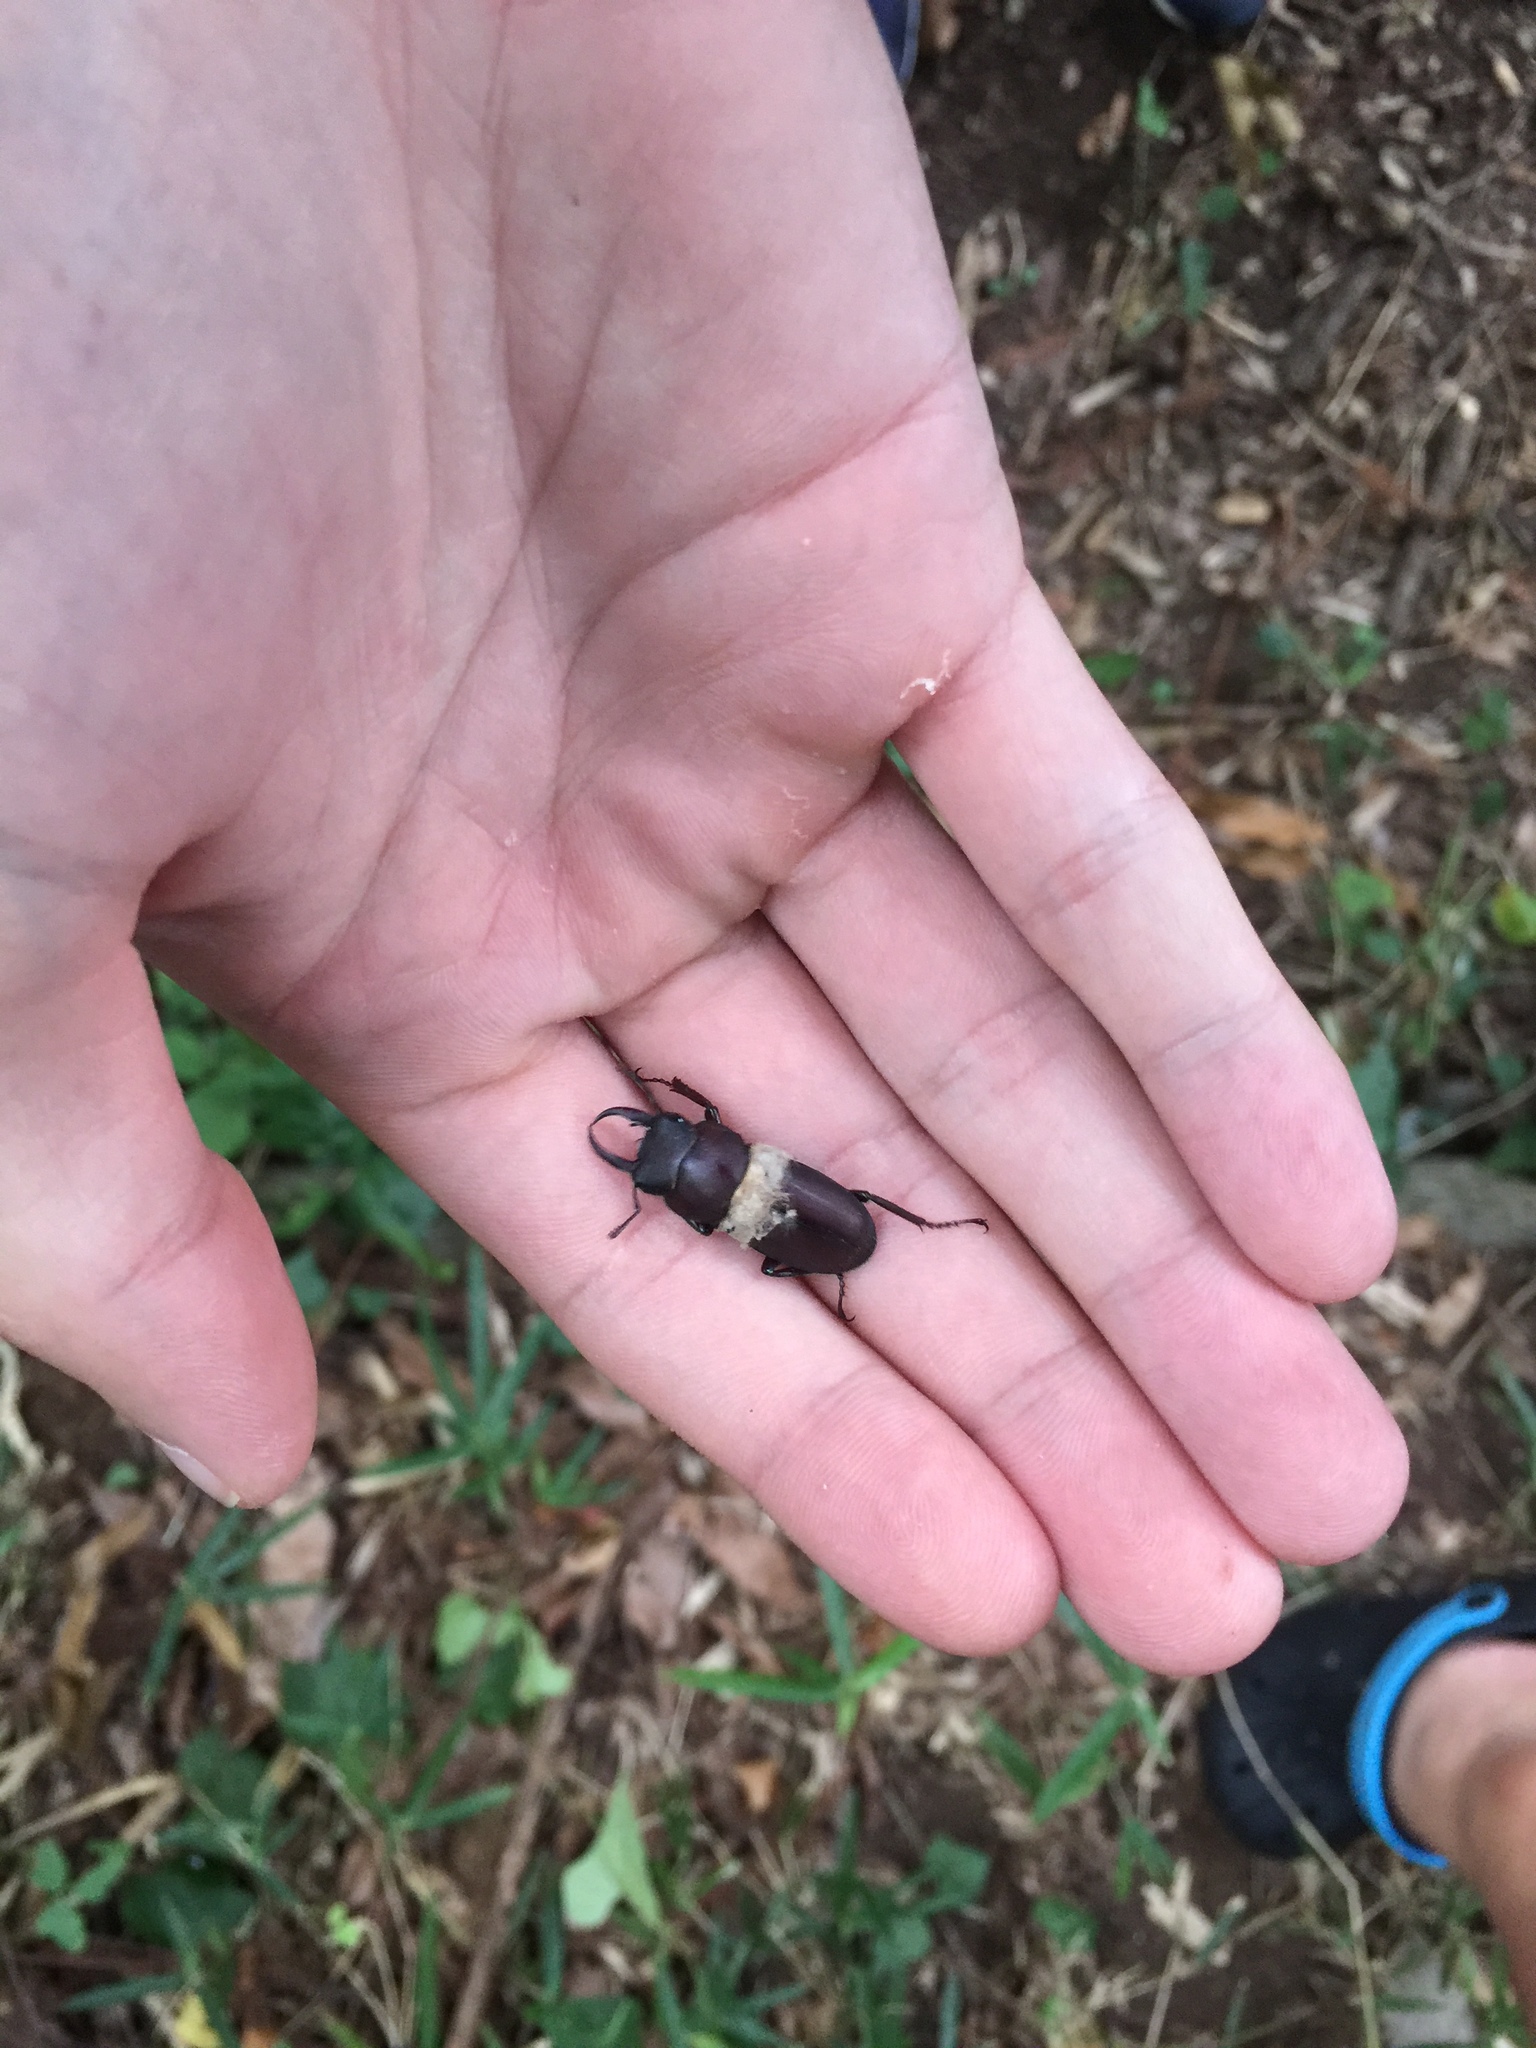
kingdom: Animalia
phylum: Arthropoda
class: Insecta
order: Coleoptera
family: Lucanidae
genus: Dorcus
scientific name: Dorcus rectus
